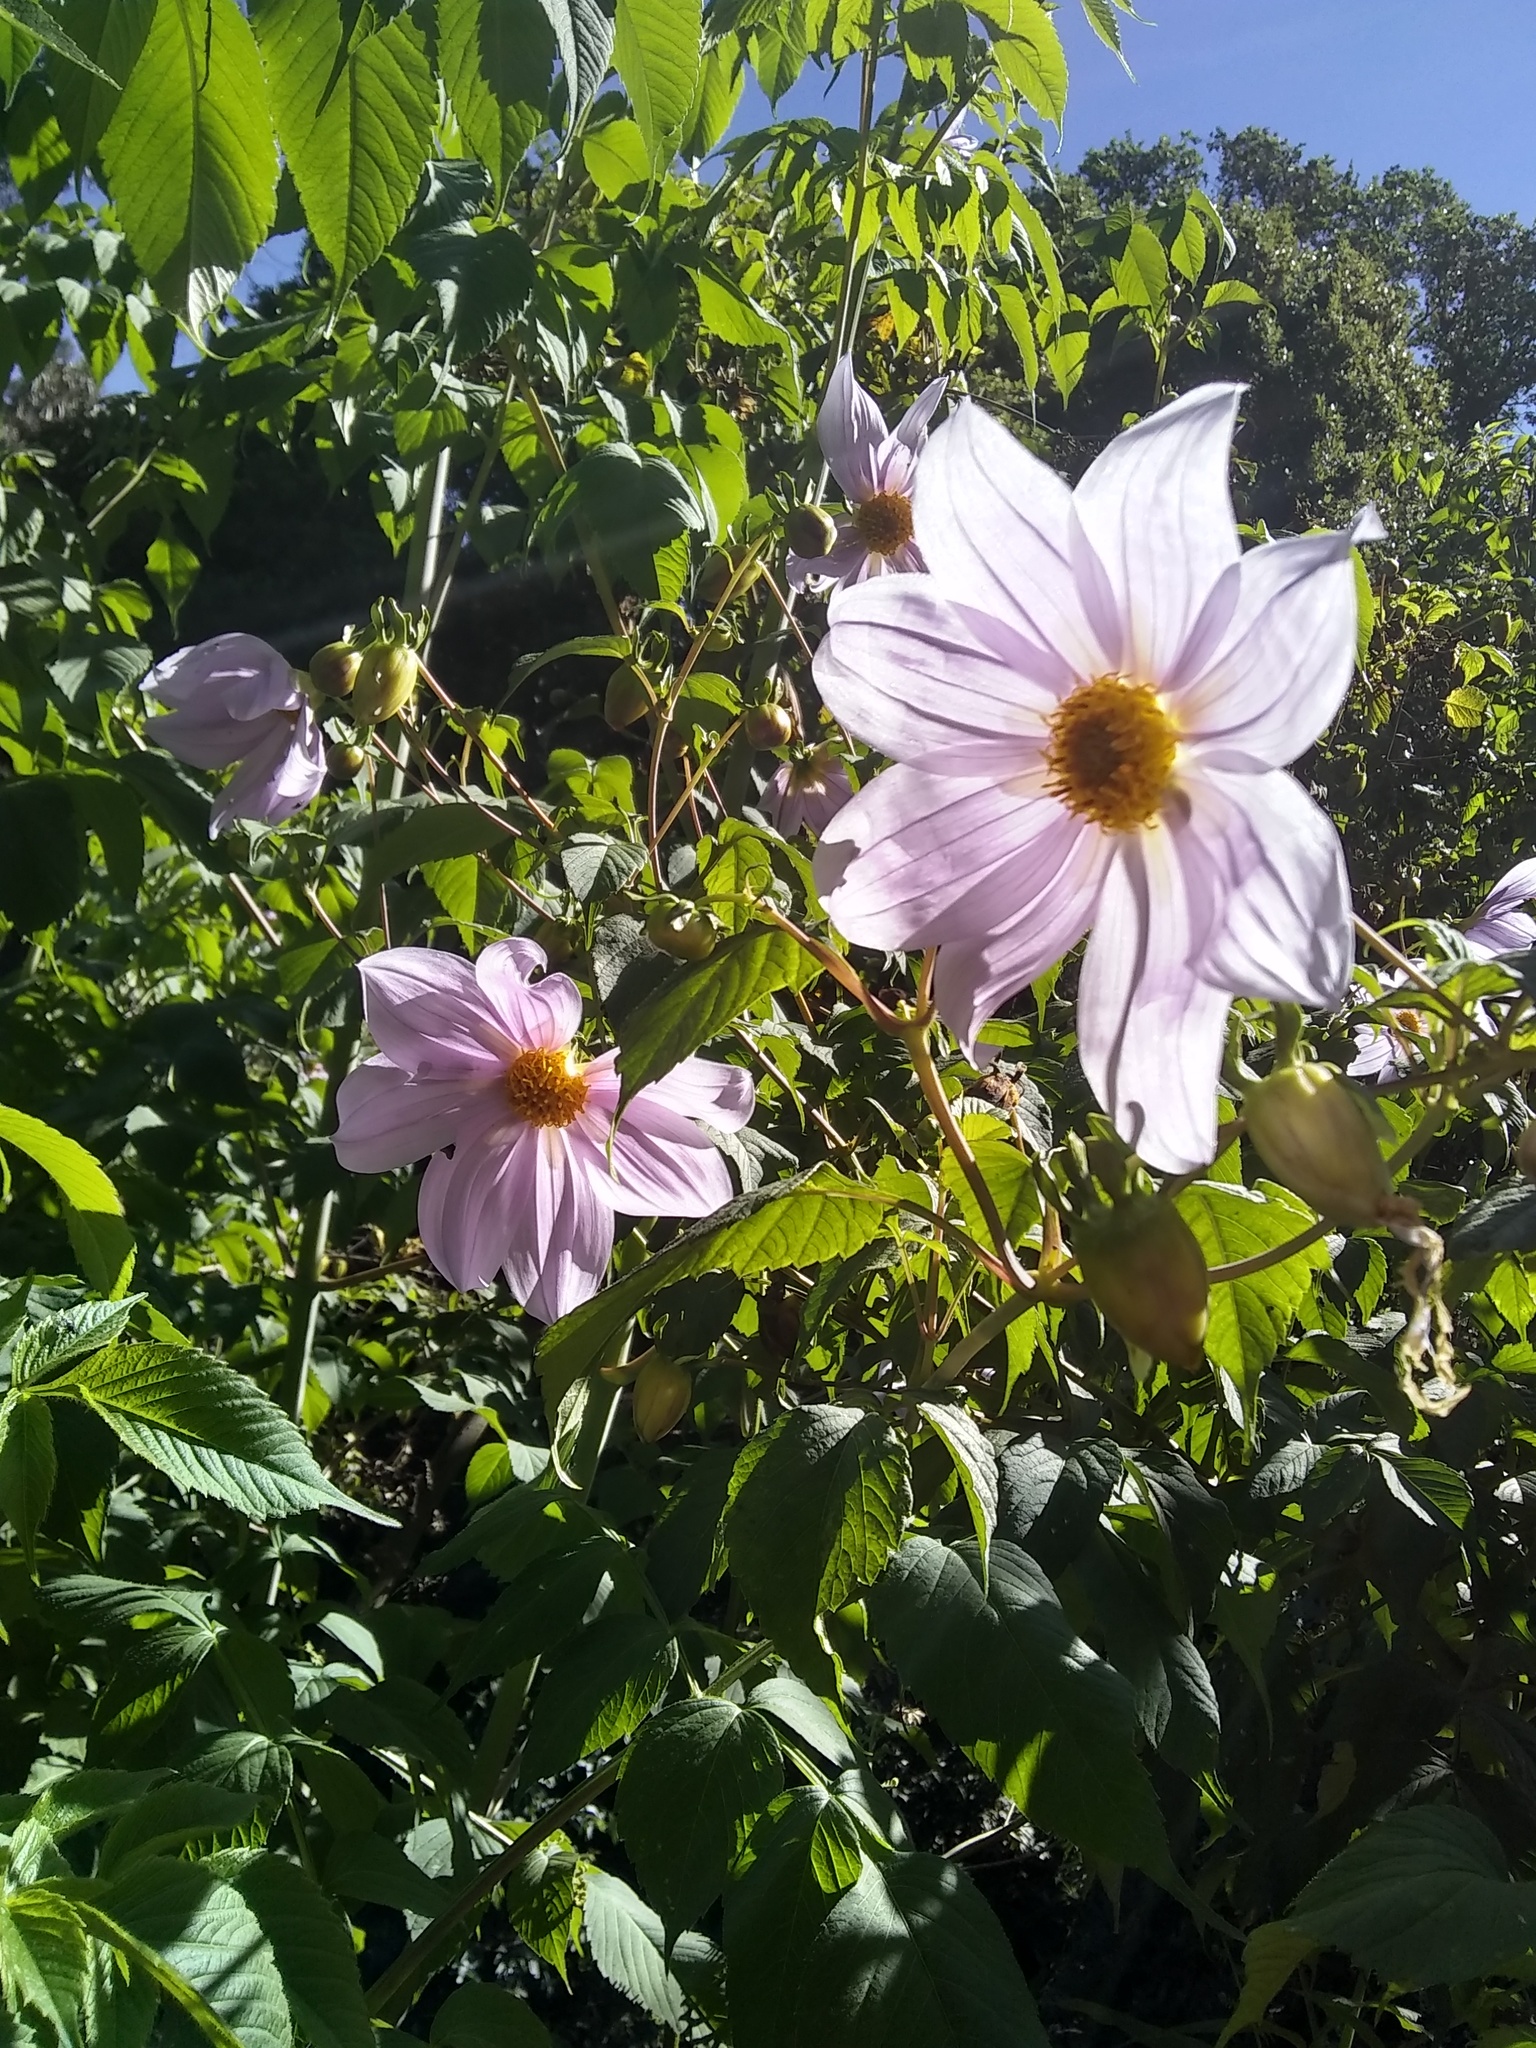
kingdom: Plantae
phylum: Tracheophyta
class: Magnoliopsida
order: Asterales
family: Asteraceae
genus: Dahlia
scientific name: Dahlia imperialis
